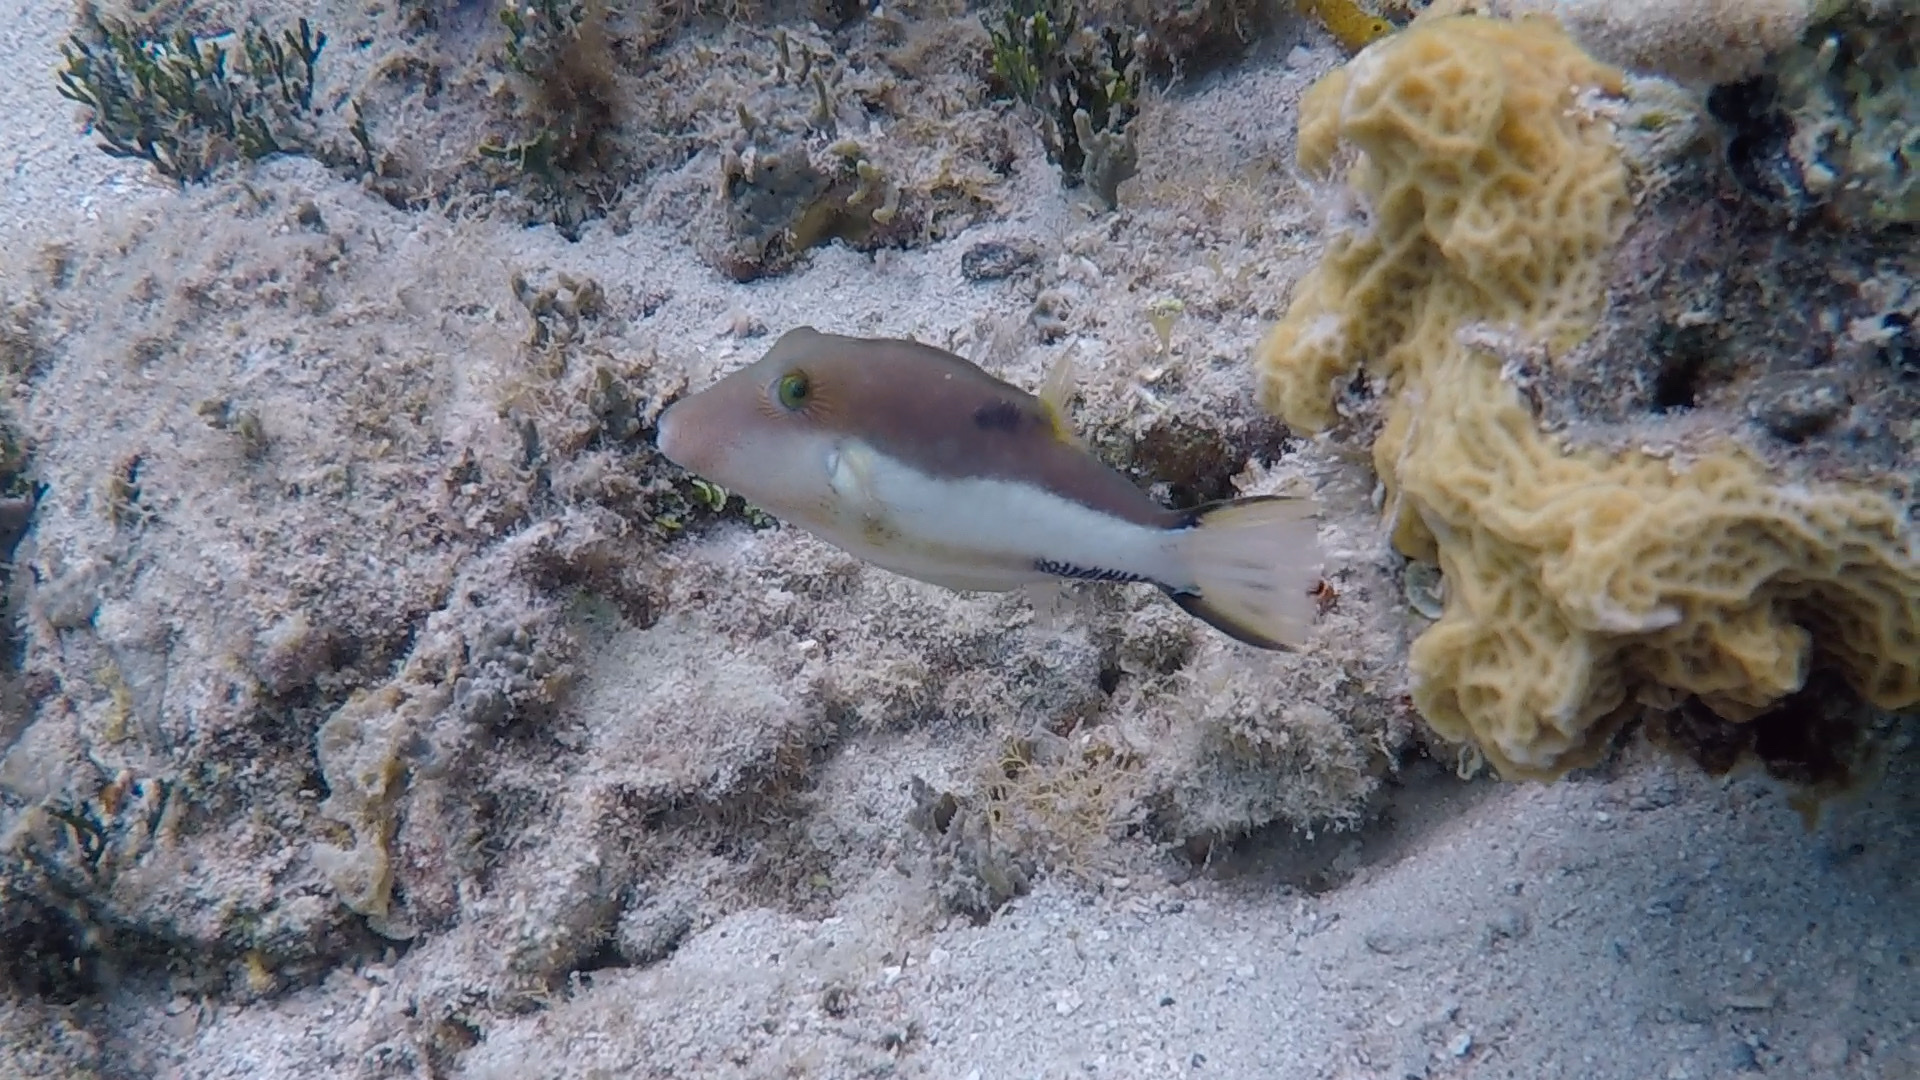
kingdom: Animalia
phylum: Chordata
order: Tetraodontiformes
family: Tetraodontidae
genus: Canthigaster
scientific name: Canthigaster rostrata
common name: Caribbean sharpnose-puffer
